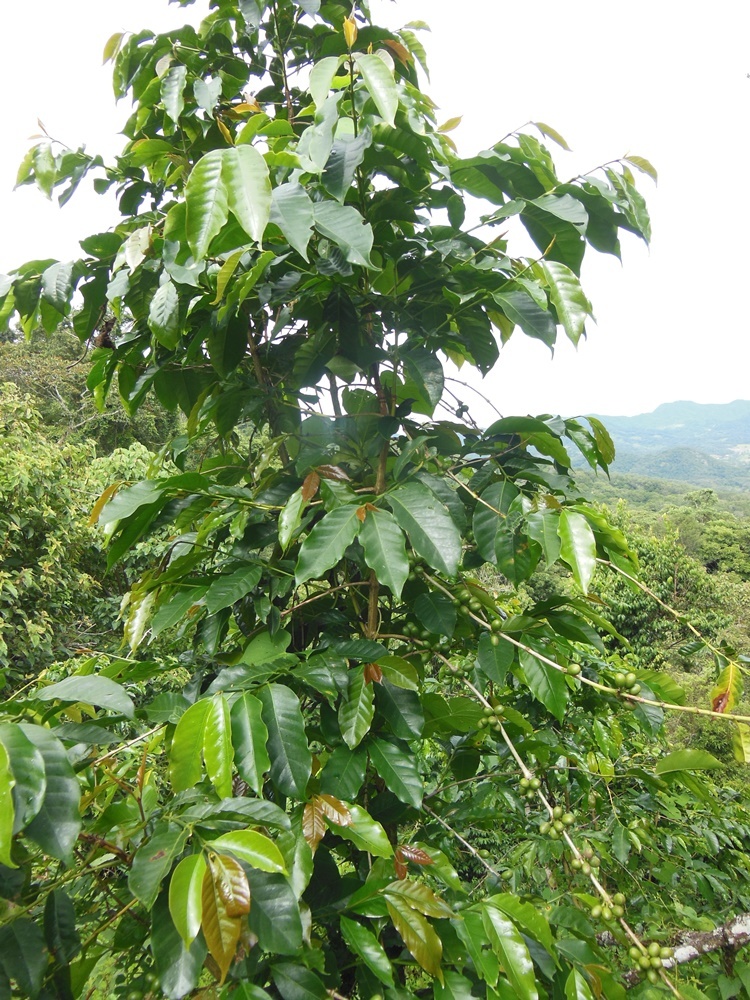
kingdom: Plantae
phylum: Tracheophyta
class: Magnoliopsida
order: Gentianales
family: Rubiaceae
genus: Coffea
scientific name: Coffea arabica
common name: Coffee
